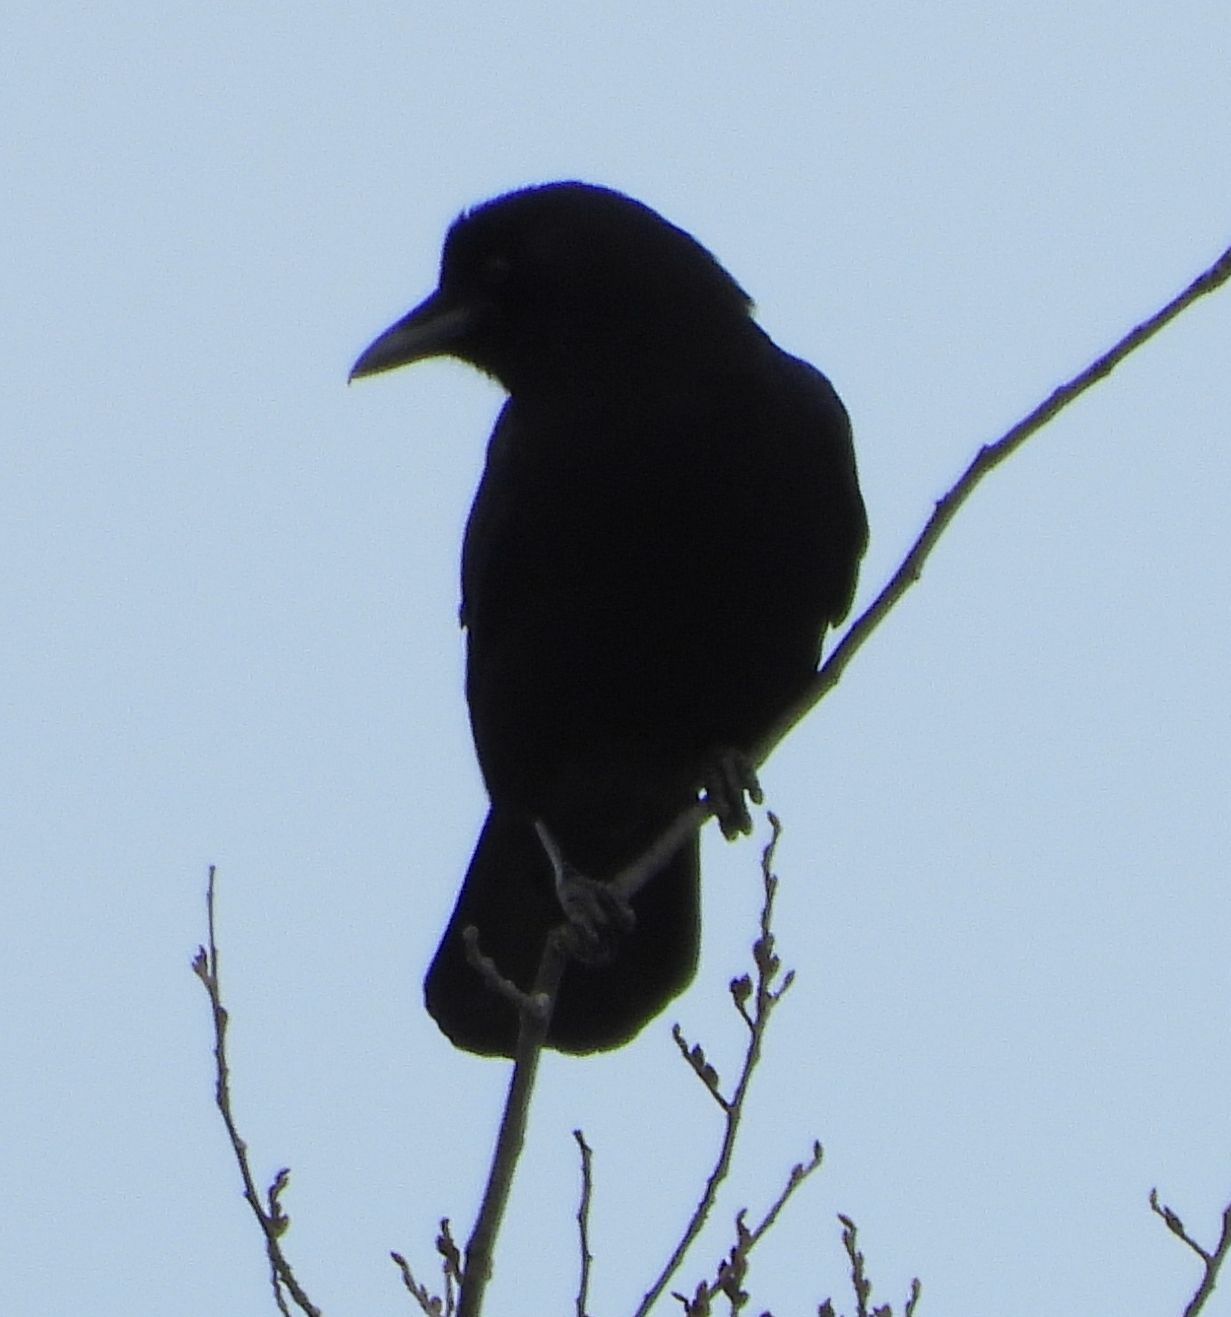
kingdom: Animalia
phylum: Chordata
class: Aves
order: Passeriformes
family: Corvidae
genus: Corvus
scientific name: Corvus brachyrhynchos
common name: American crow
